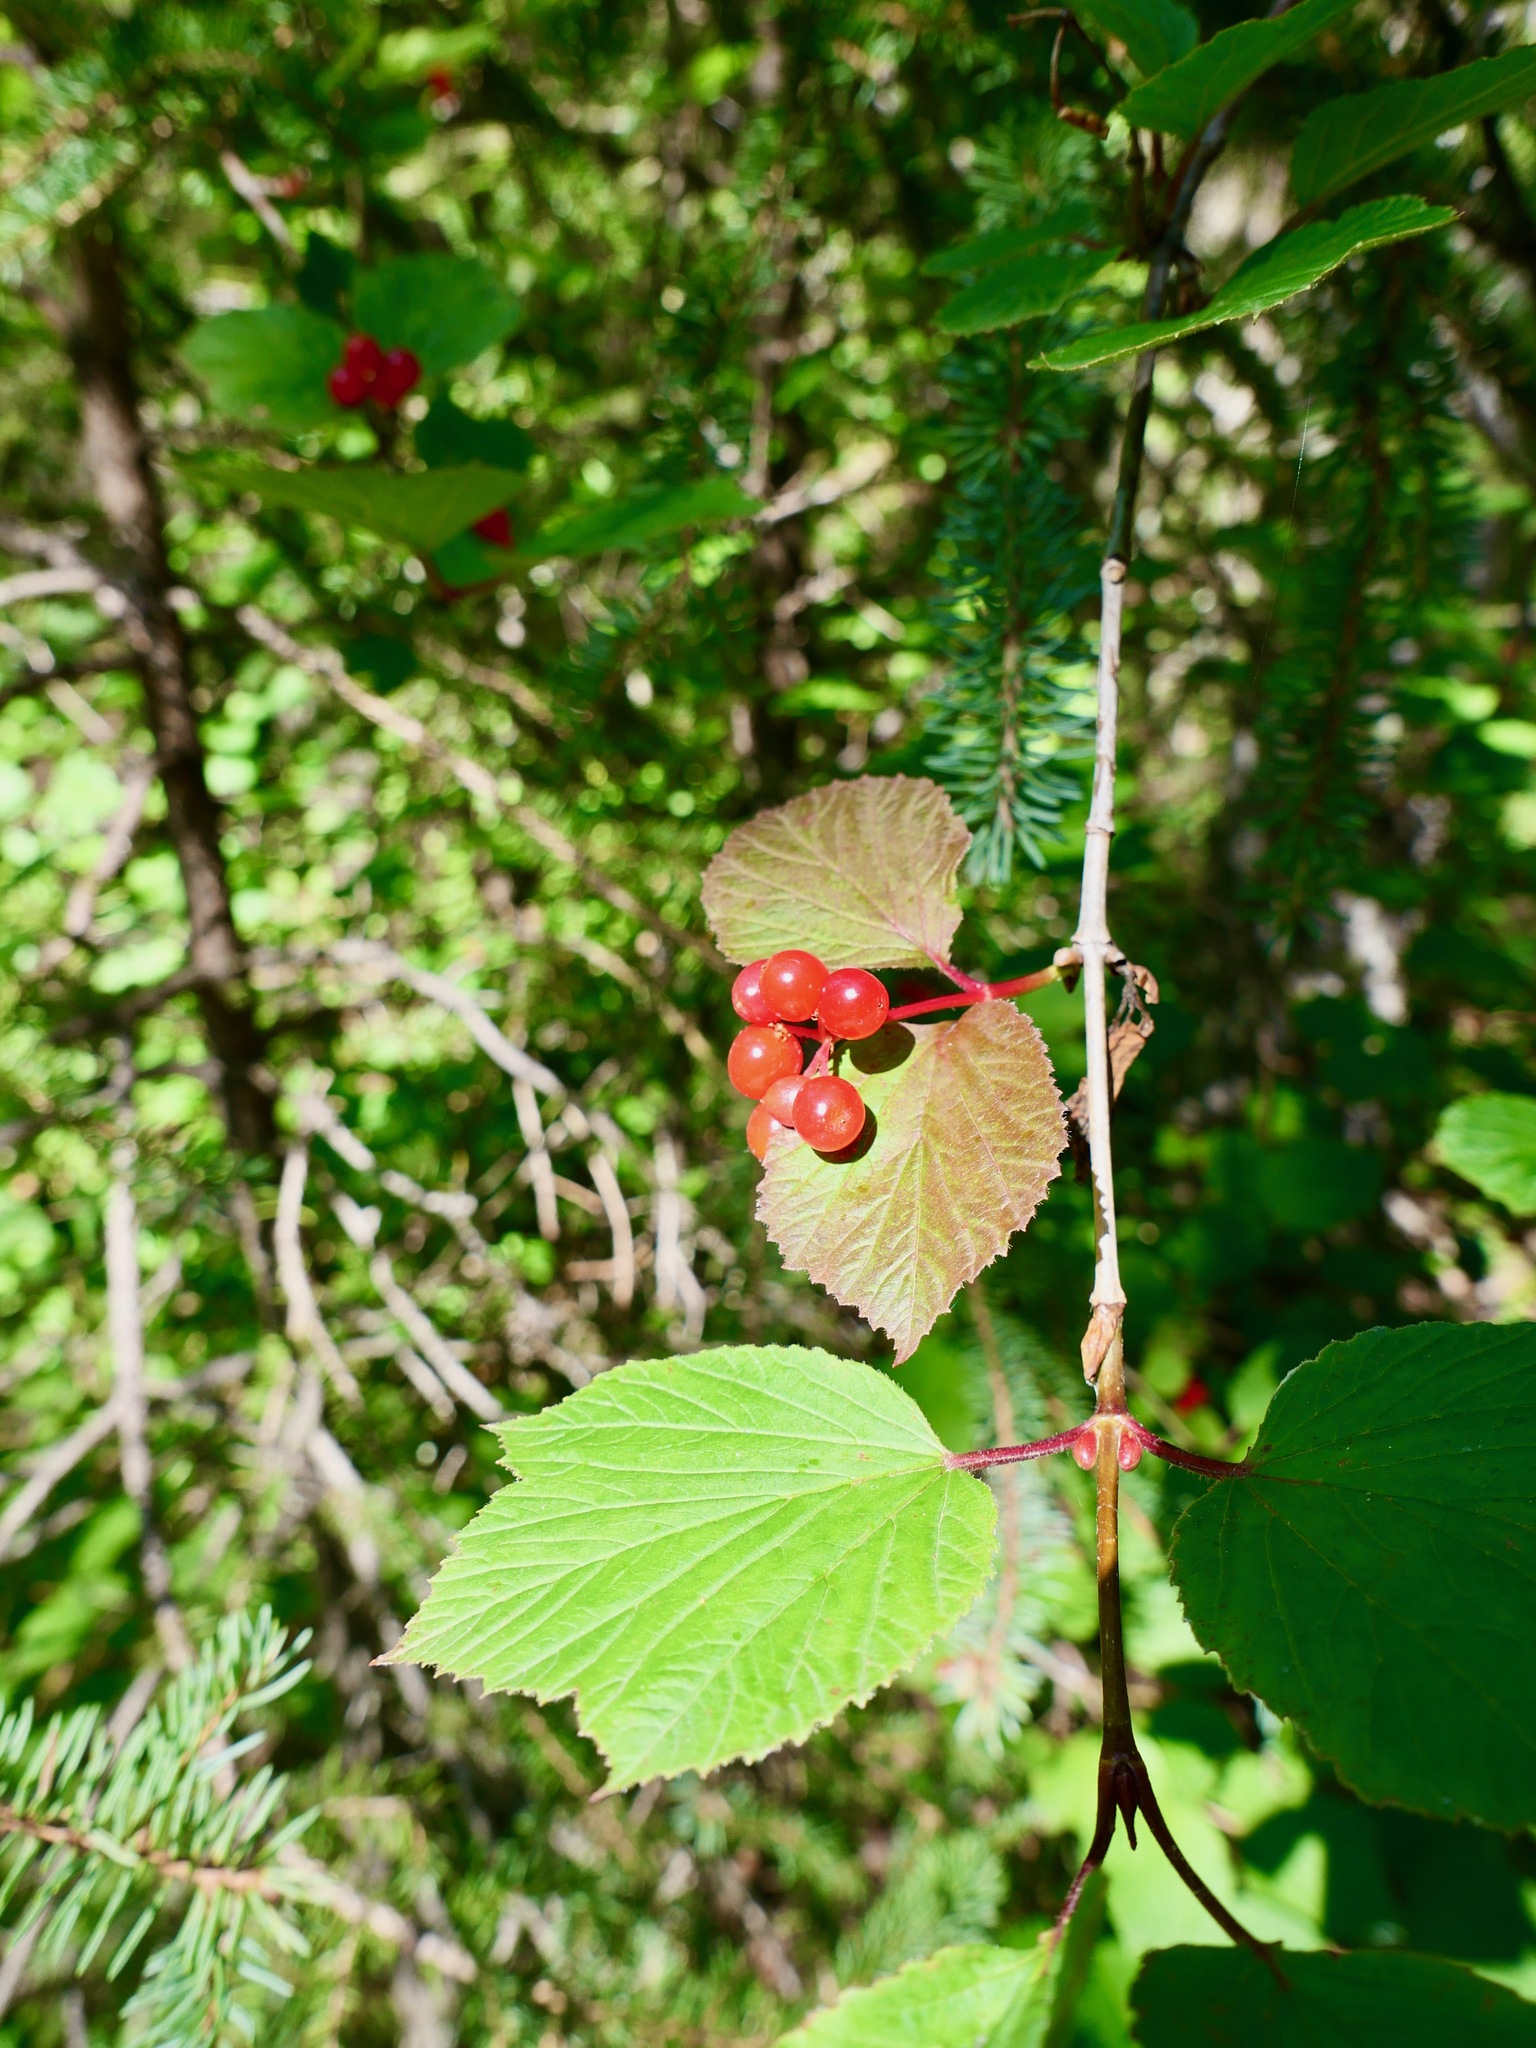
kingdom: Plantae
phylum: Tracheophyta
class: Magnoliopsida
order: Dipsacales
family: Viburnaceae
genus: Viburnum
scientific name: Viburnum edule
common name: Mooseberry
